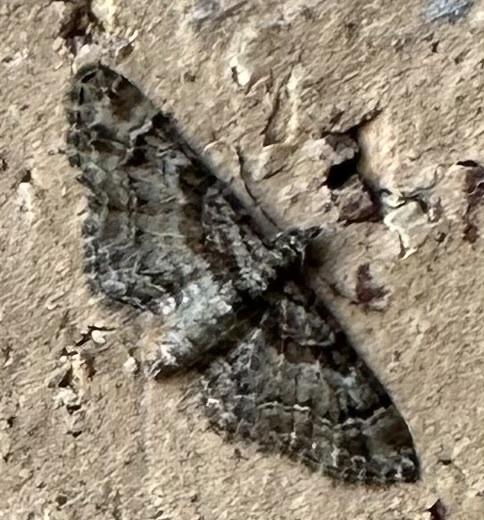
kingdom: Animalia
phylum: Arthropoda
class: Insecta
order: Lepidoptera
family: Geometridae
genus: Gymnoscelis
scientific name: Gymnoscelis rufifasciata
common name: Double-striped pug
